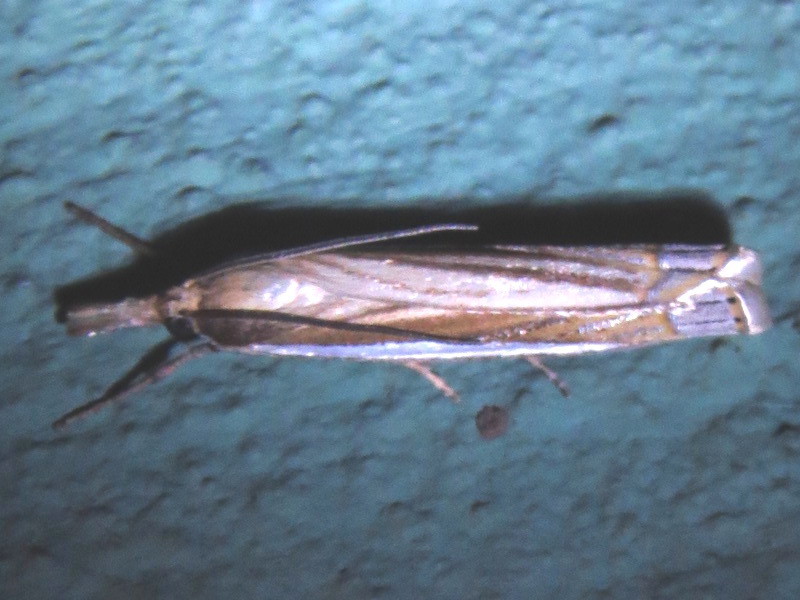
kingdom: Animalia
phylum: Arthropoda
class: Insecta
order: Lepidoptera
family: Crambidae
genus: Crambus
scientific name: Crambus laqueatellus
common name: Eastern grass-veneer
